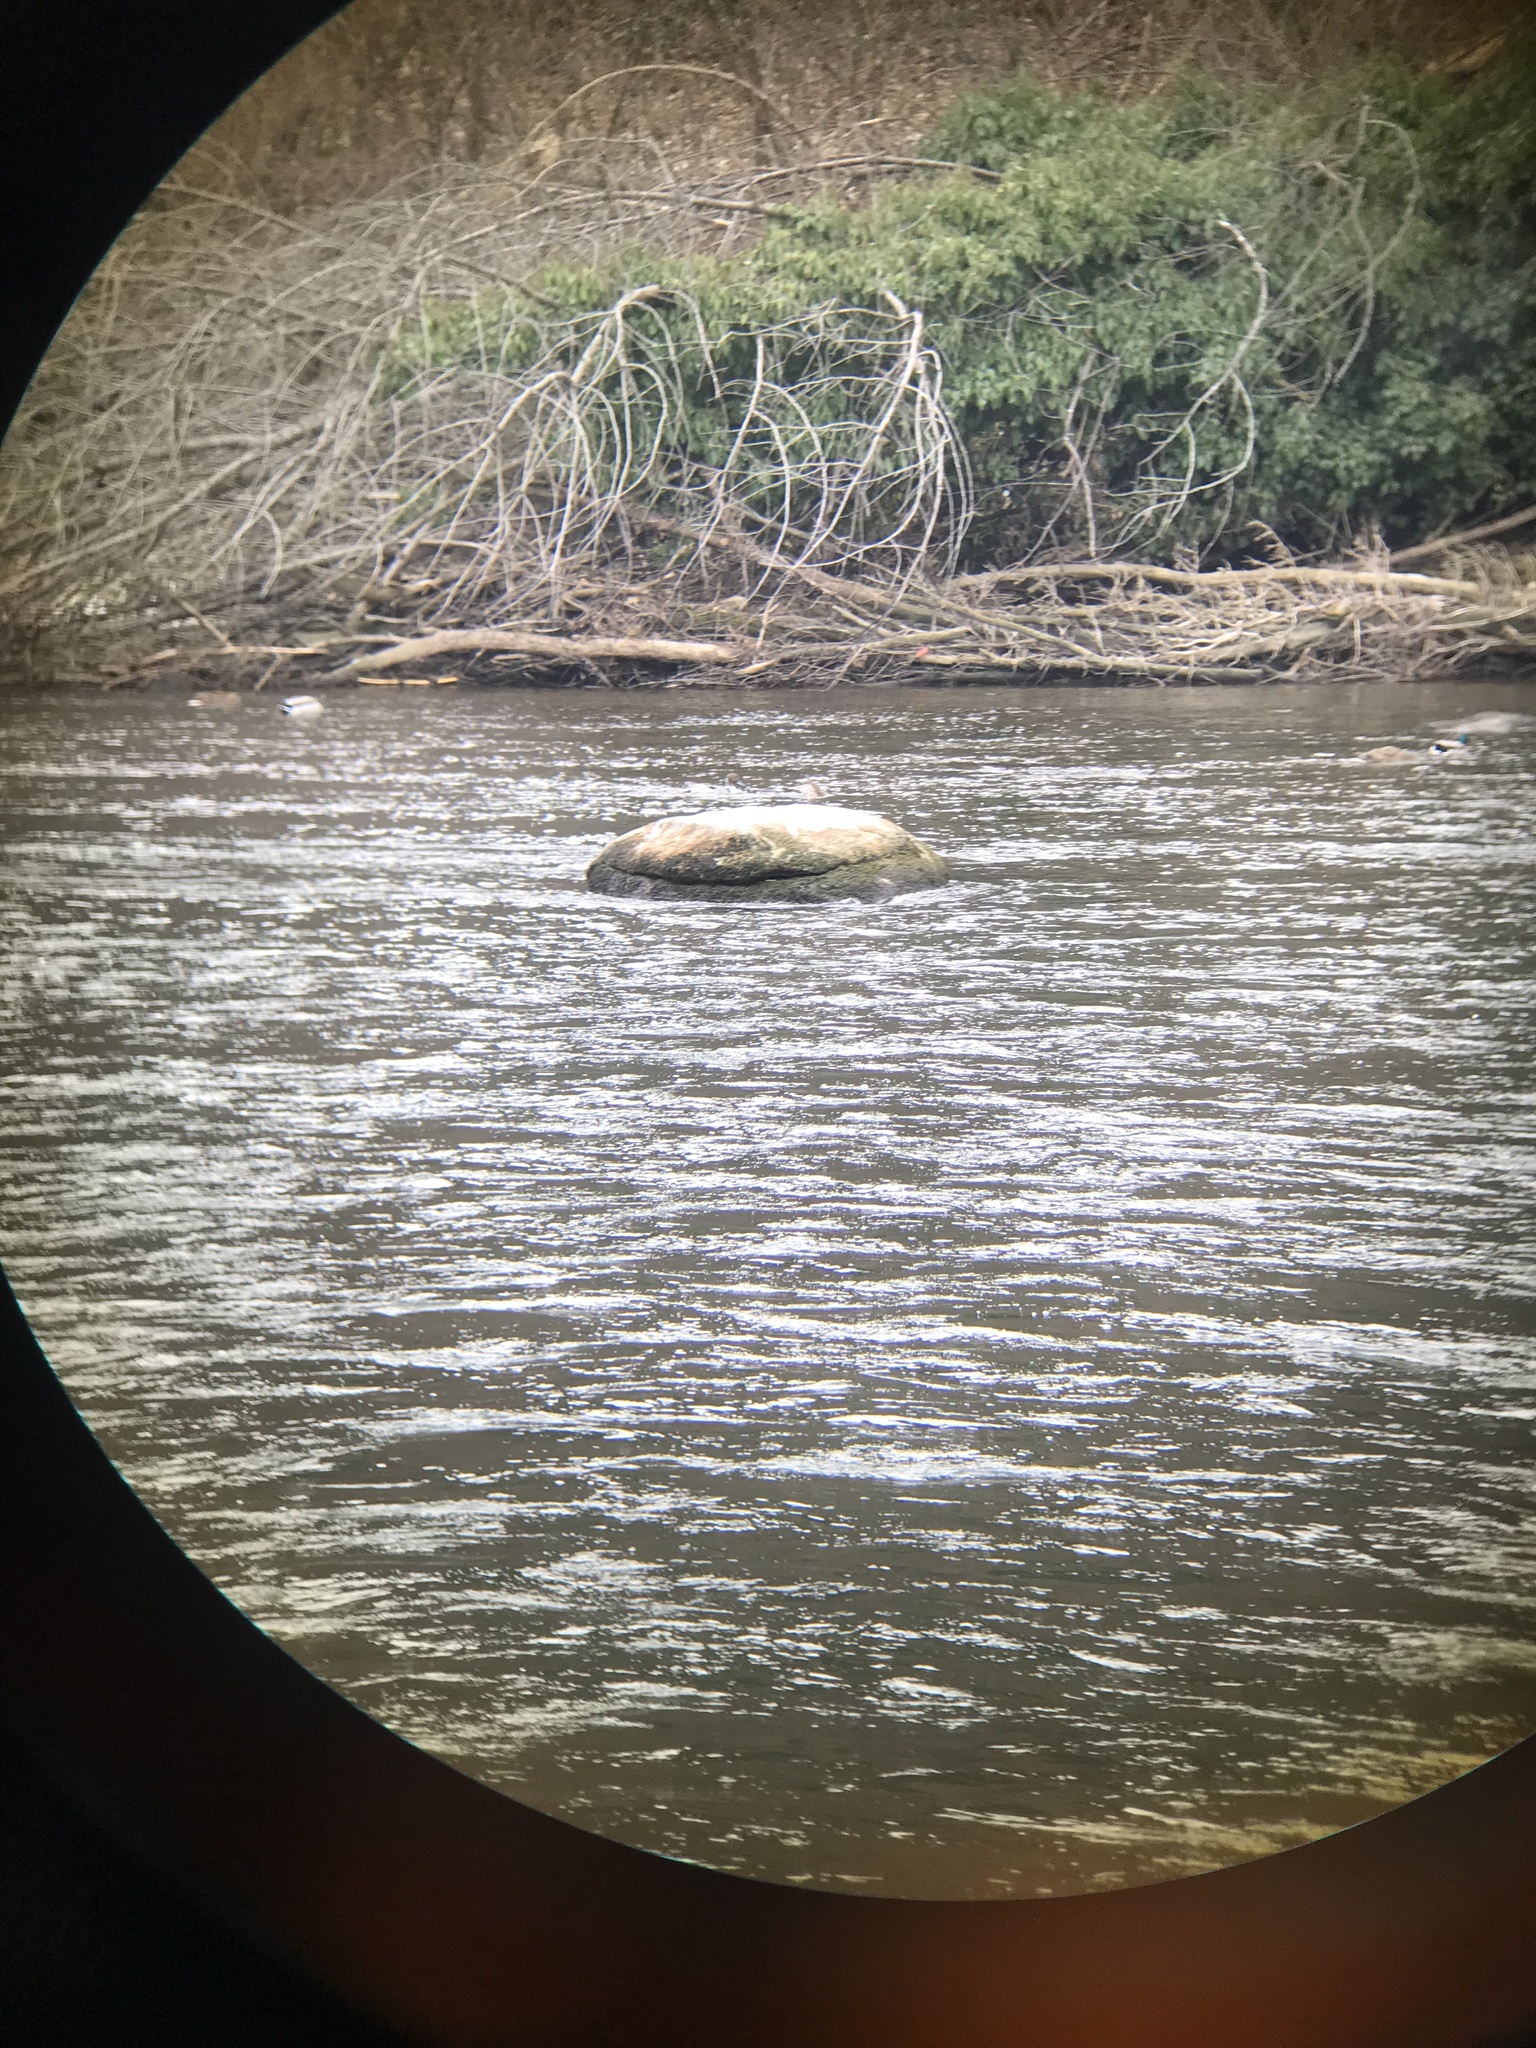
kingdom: Animalia
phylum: Chordata
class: Aves
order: Anseriformes
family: Anatidae
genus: Anas
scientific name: Anas acuta
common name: Northern pintail
